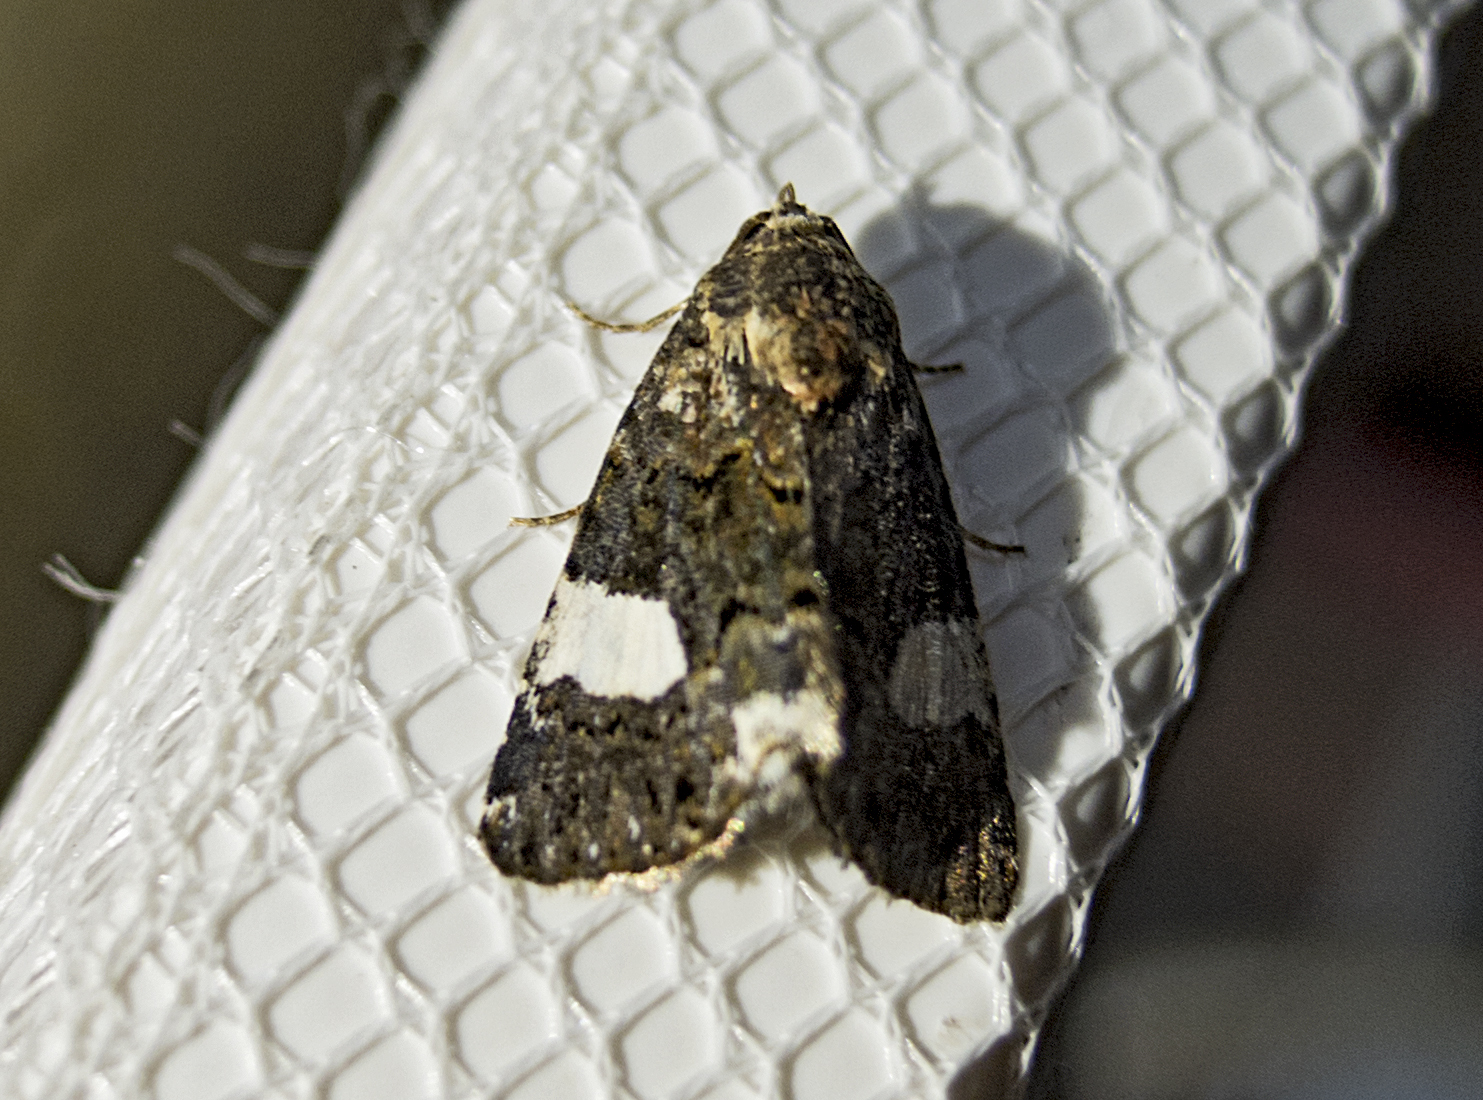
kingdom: Animalia
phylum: Arthropoda
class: Insecta
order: Lepidoptera
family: Erebidae
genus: Tyta
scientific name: Tyta luctuosa
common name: Four-spotted
